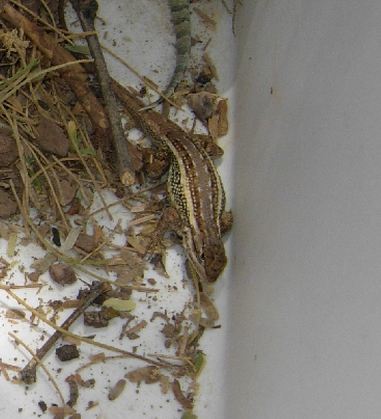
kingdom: Animalia
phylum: Chordata
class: Squamata
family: Phrynosomatidae
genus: Sceloporus
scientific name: Sceloporus cowlesi
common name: White sands prairie lizard
